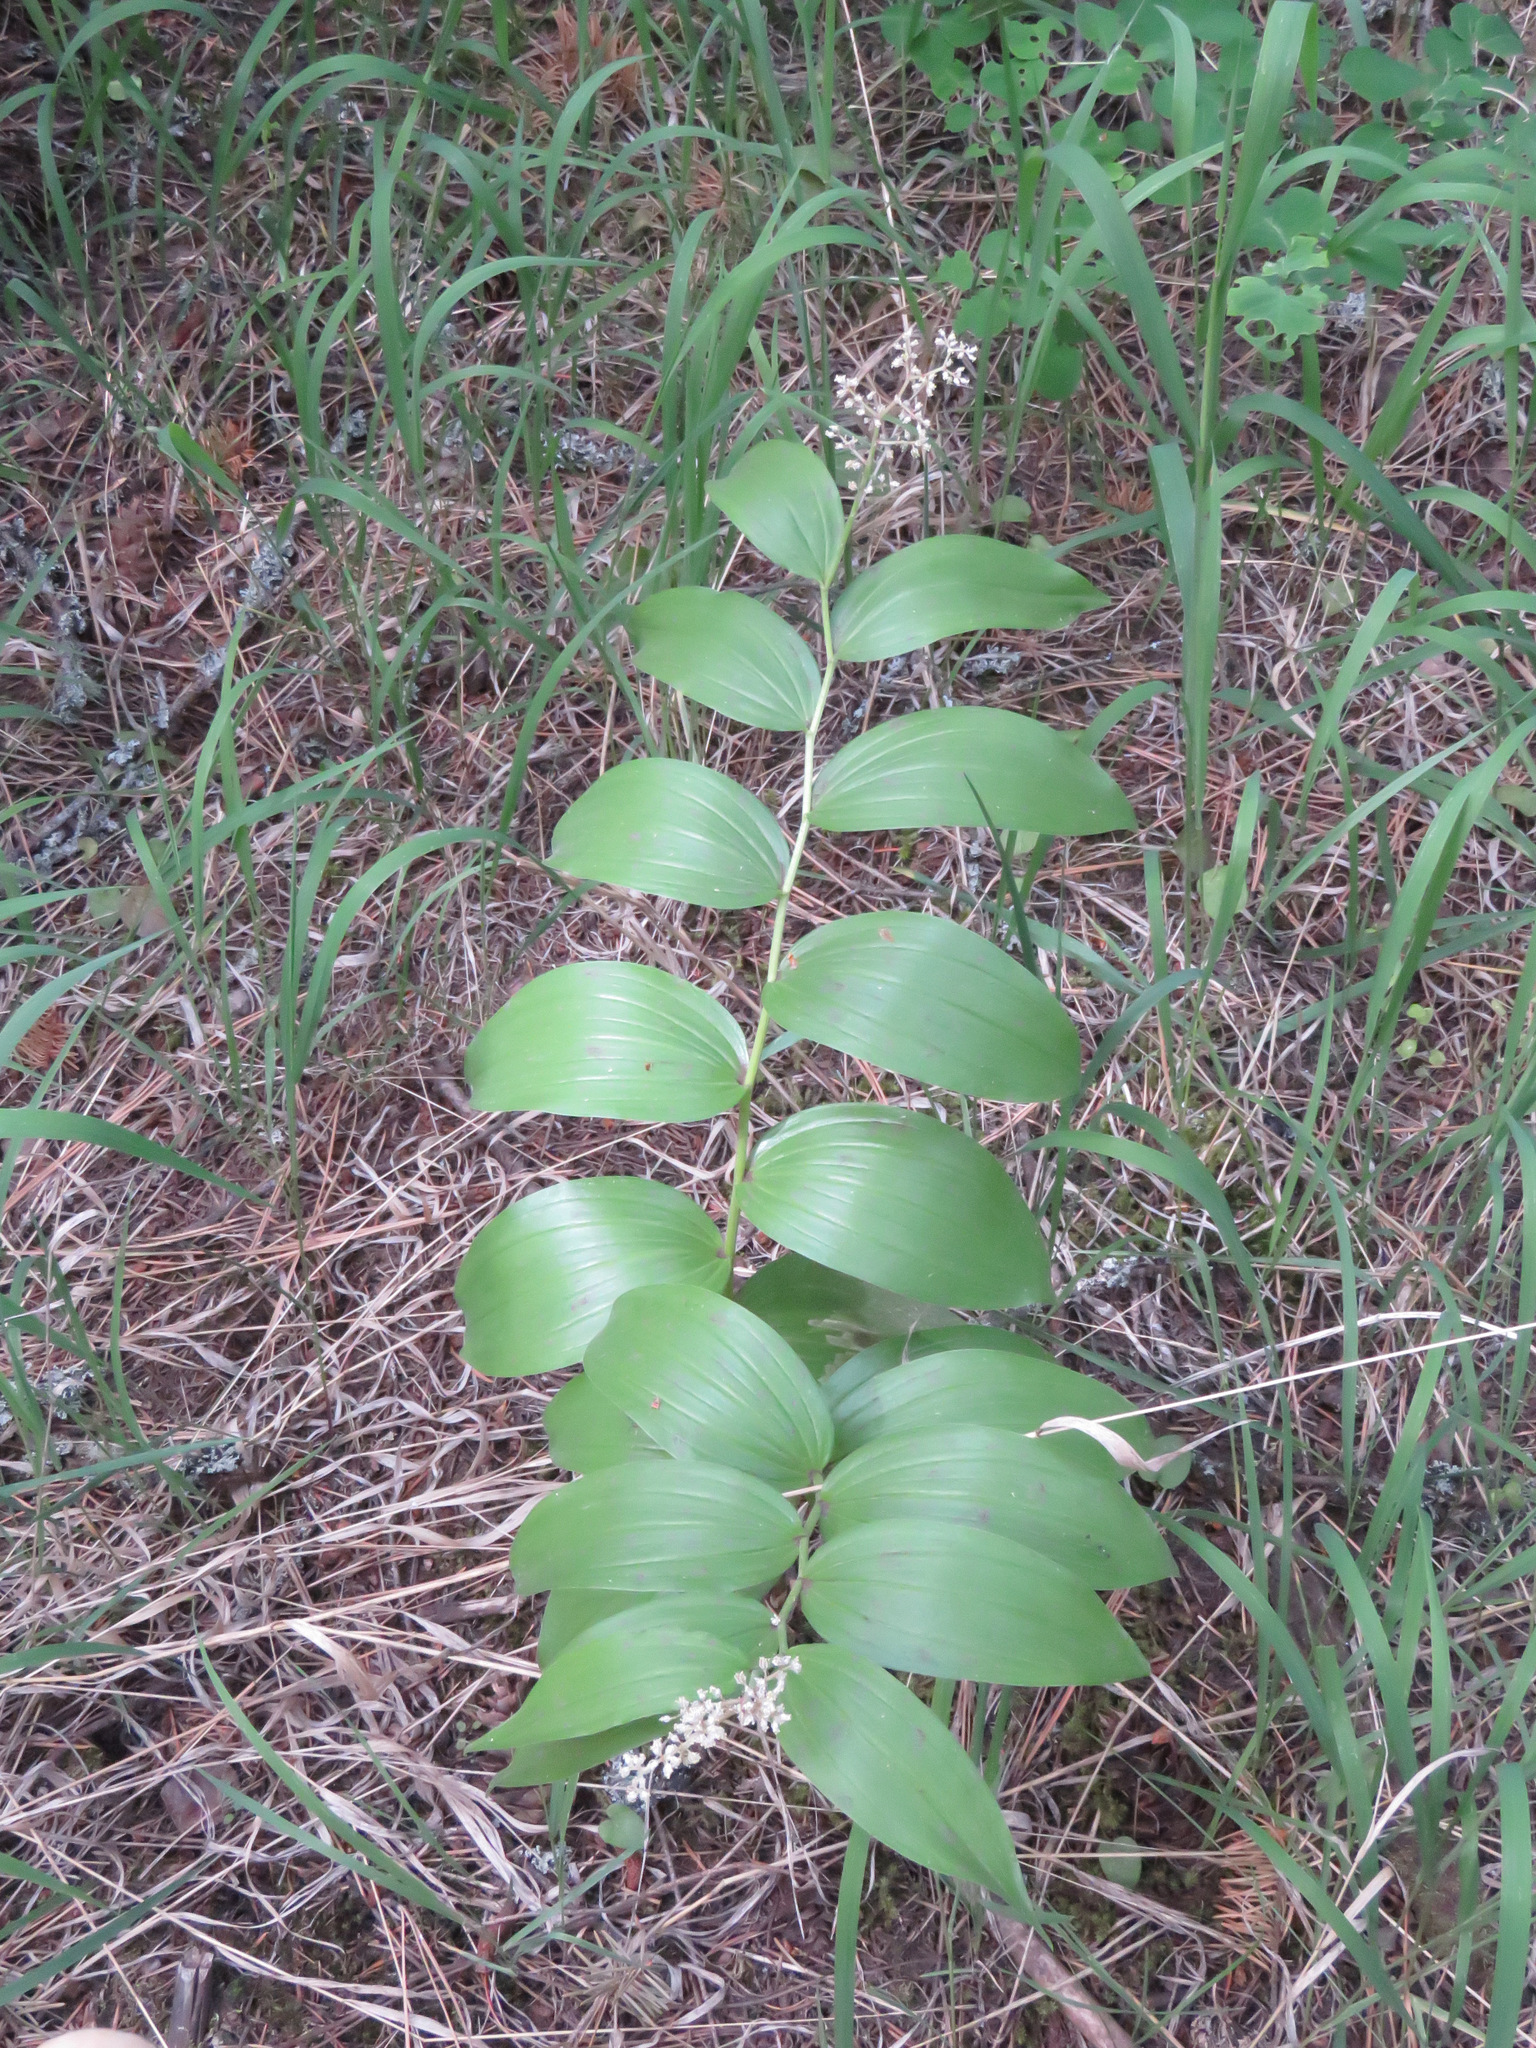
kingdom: Plantae
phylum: Tracheophyta
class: Liliopsida
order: Asparagales
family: Asparagaceae
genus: Maianthemum
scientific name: Maianthemum racemosum
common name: False spikenard
